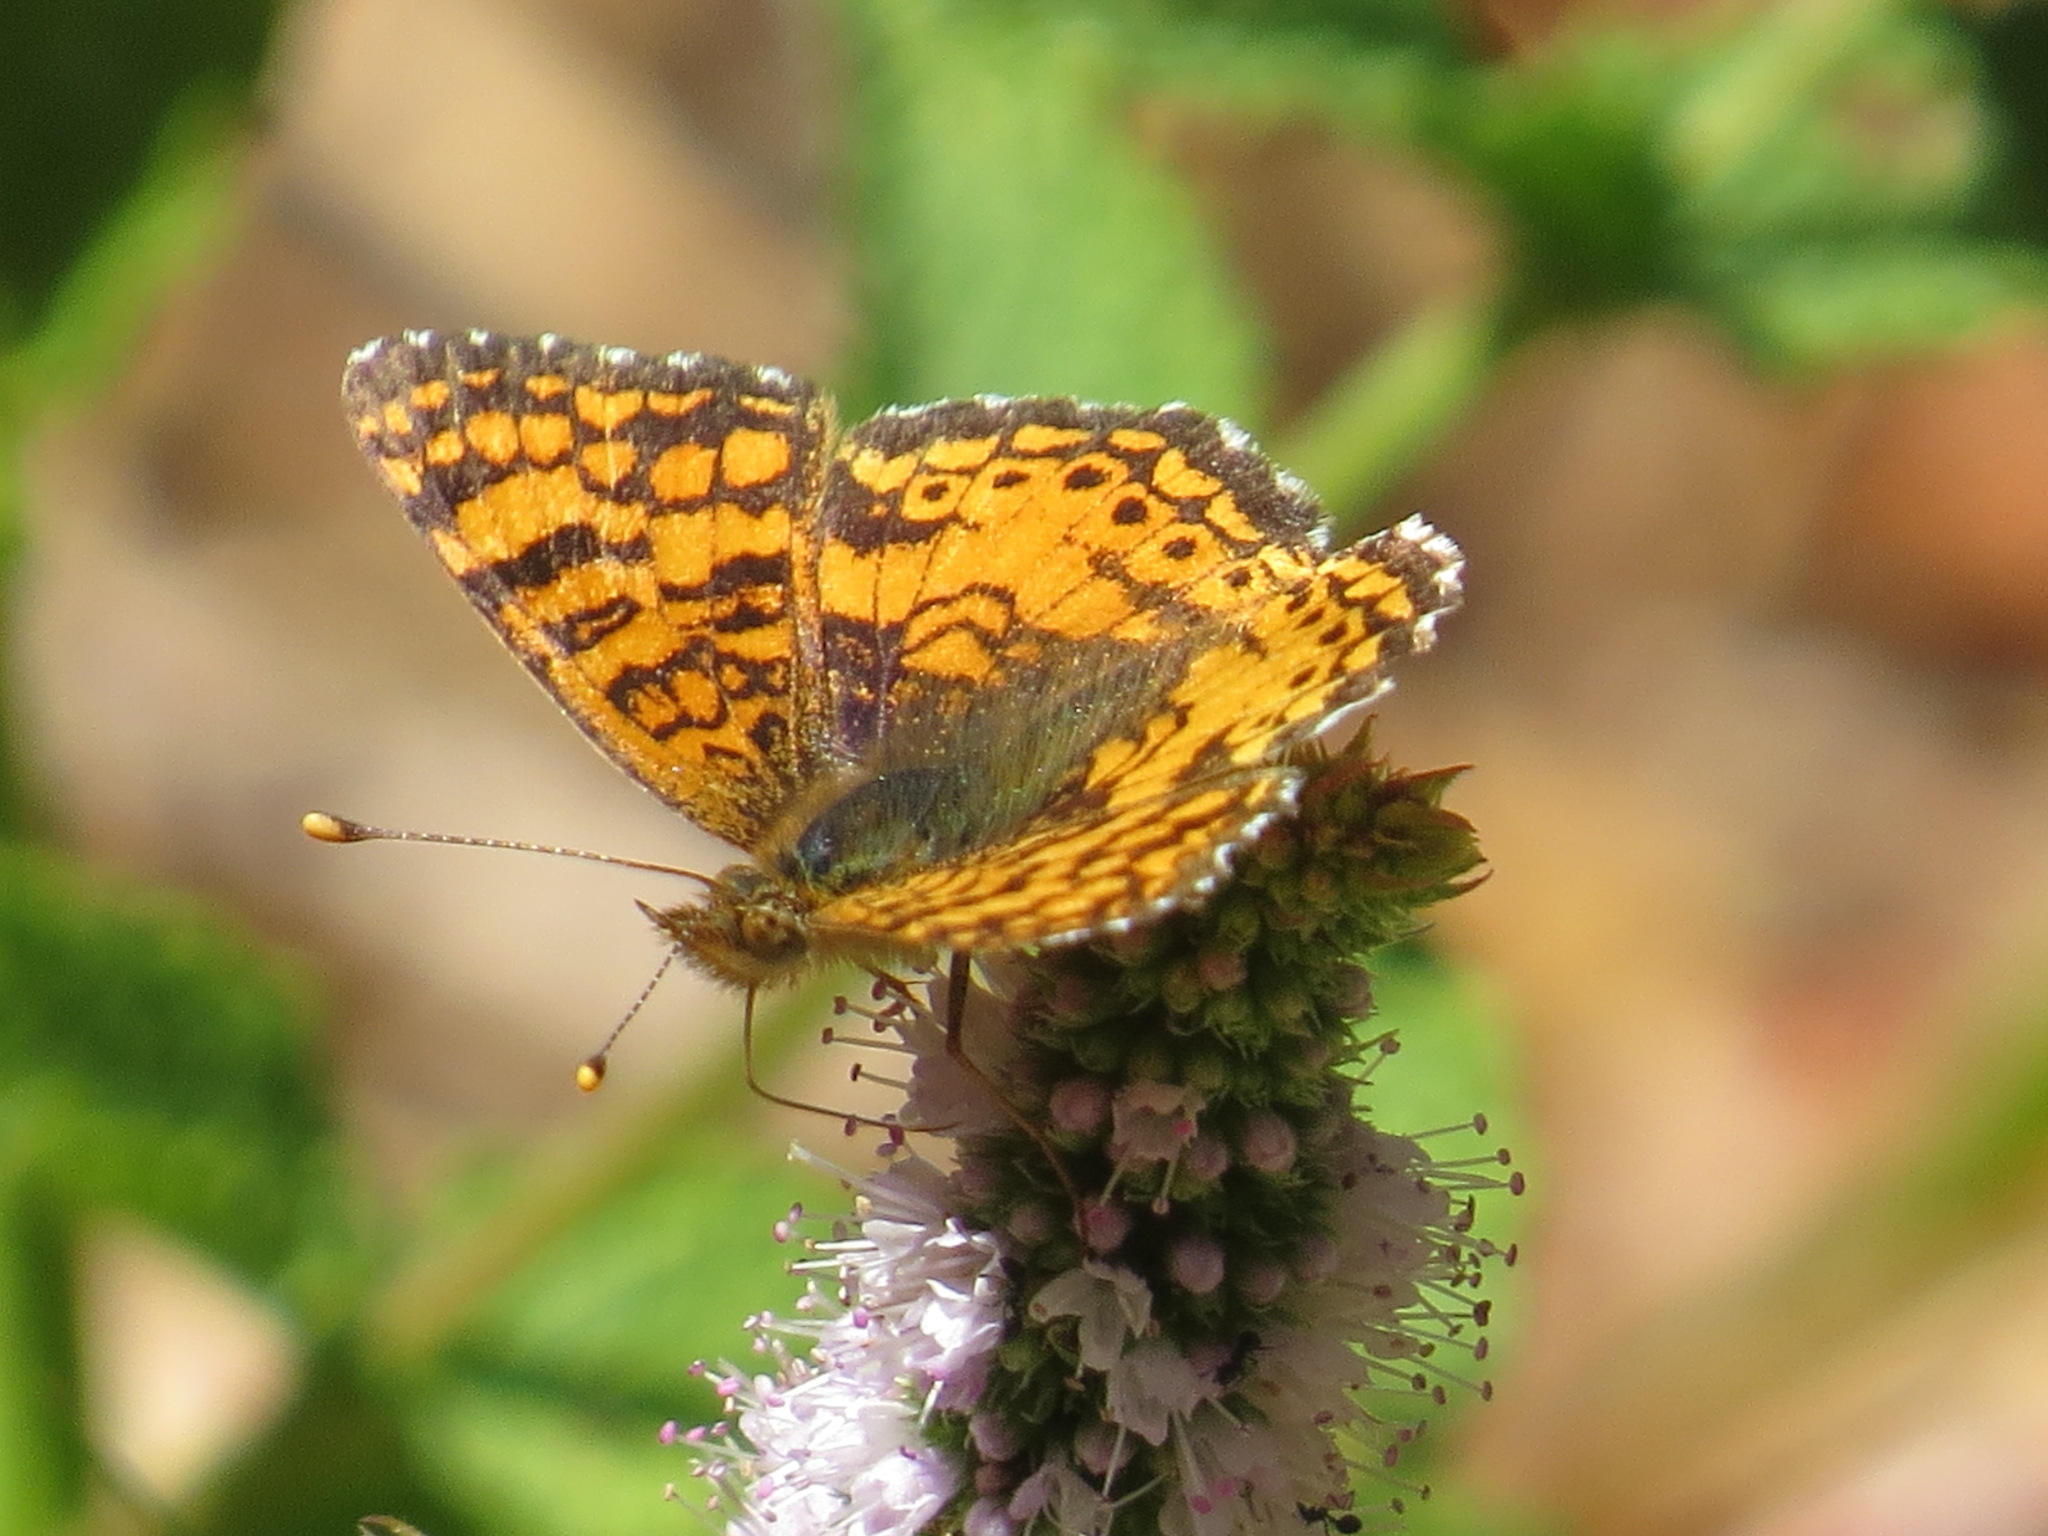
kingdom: Animalia
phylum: Arthropoda
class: Insecta
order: Lepidoptera
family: Nymphalidae
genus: Eresia
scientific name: Eresia aveyrona
